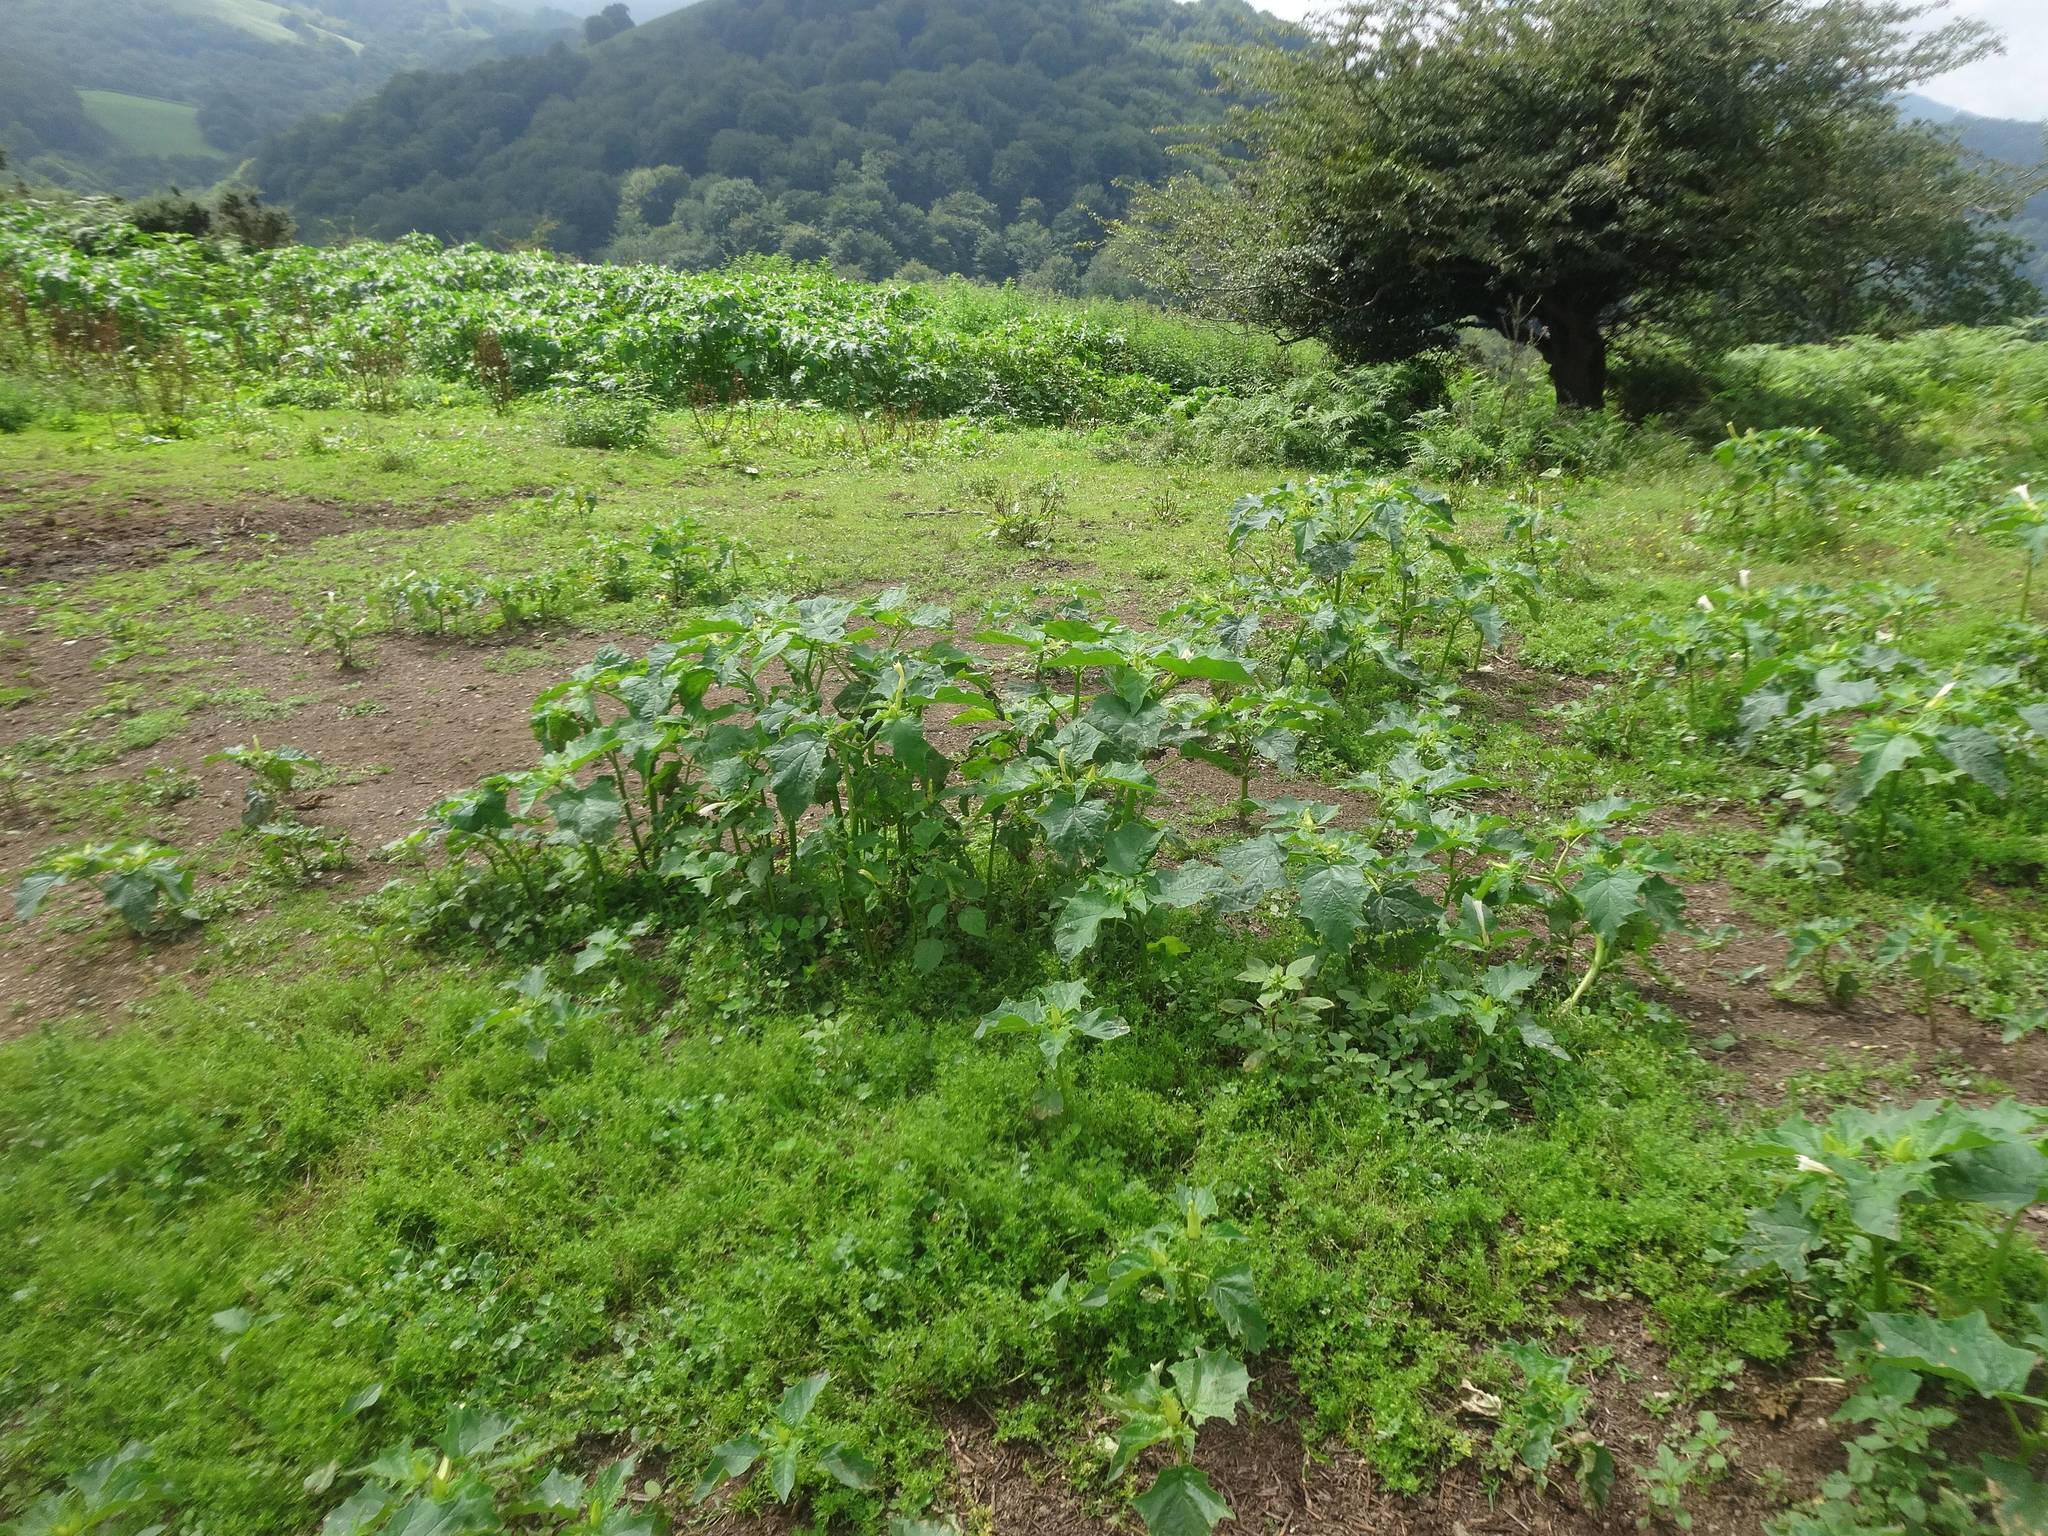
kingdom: Plantae
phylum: Tracheophyta
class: Magnoliopsida
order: Solanales
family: Solanaceae
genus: Datura
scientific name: Datura stramonium
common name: Thorn-apple
